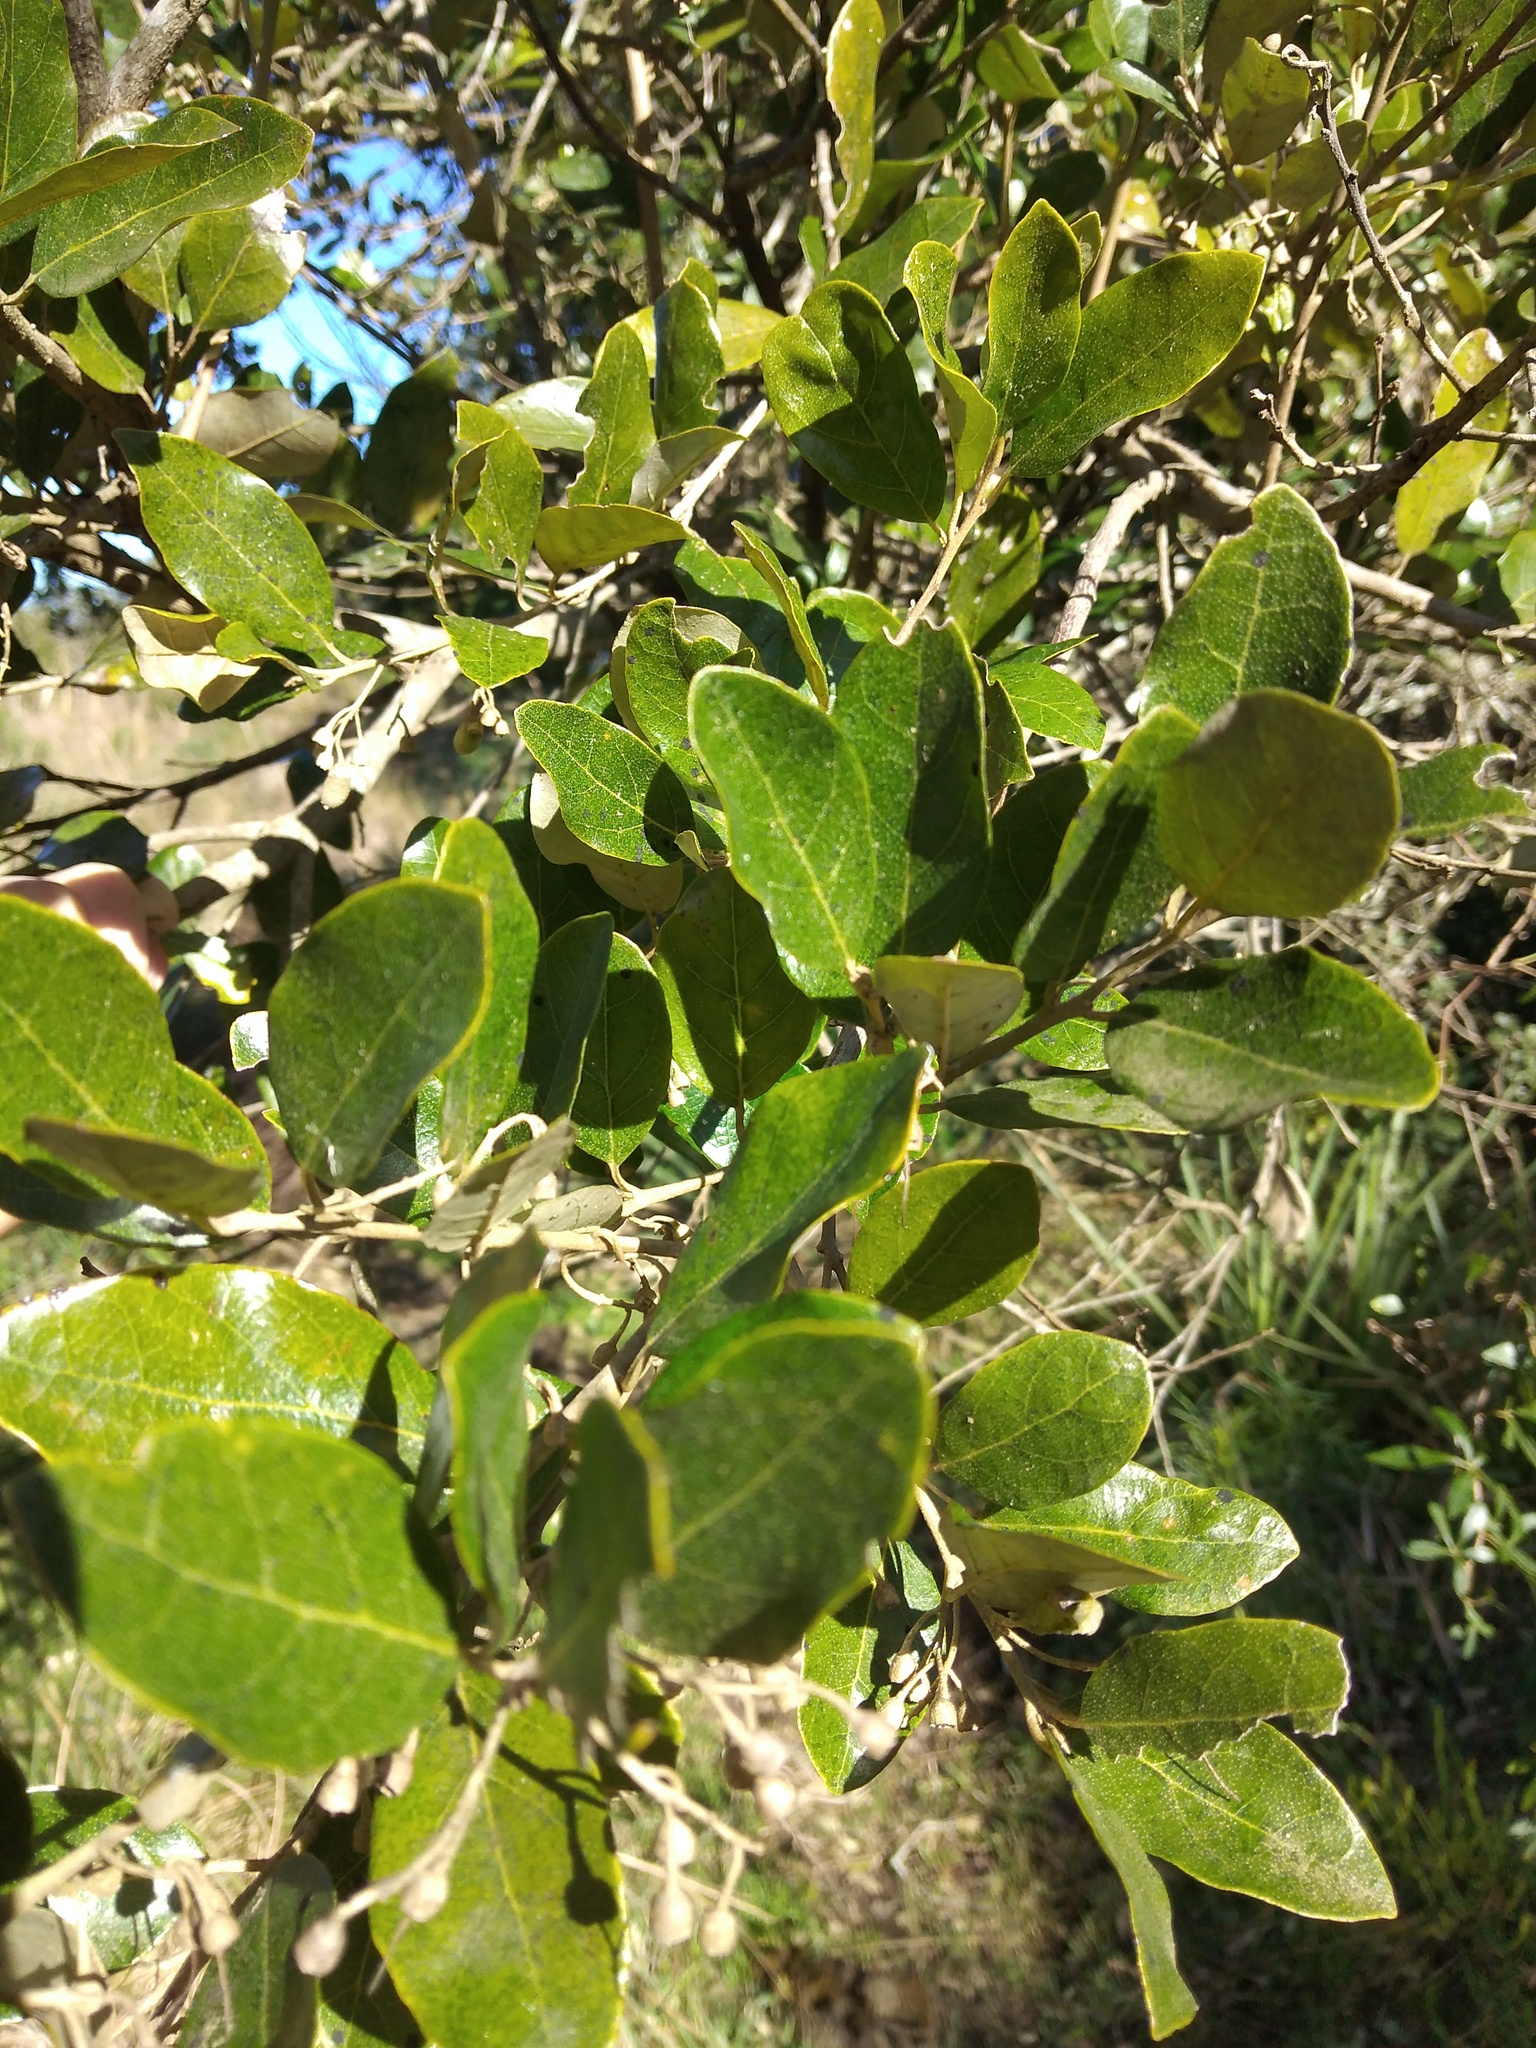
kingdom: Plantae
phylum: Tracheophyta
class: Magnoliopsida
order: Ericales
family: Styracaceae
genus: Styrax
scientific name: Styrax leprosus
